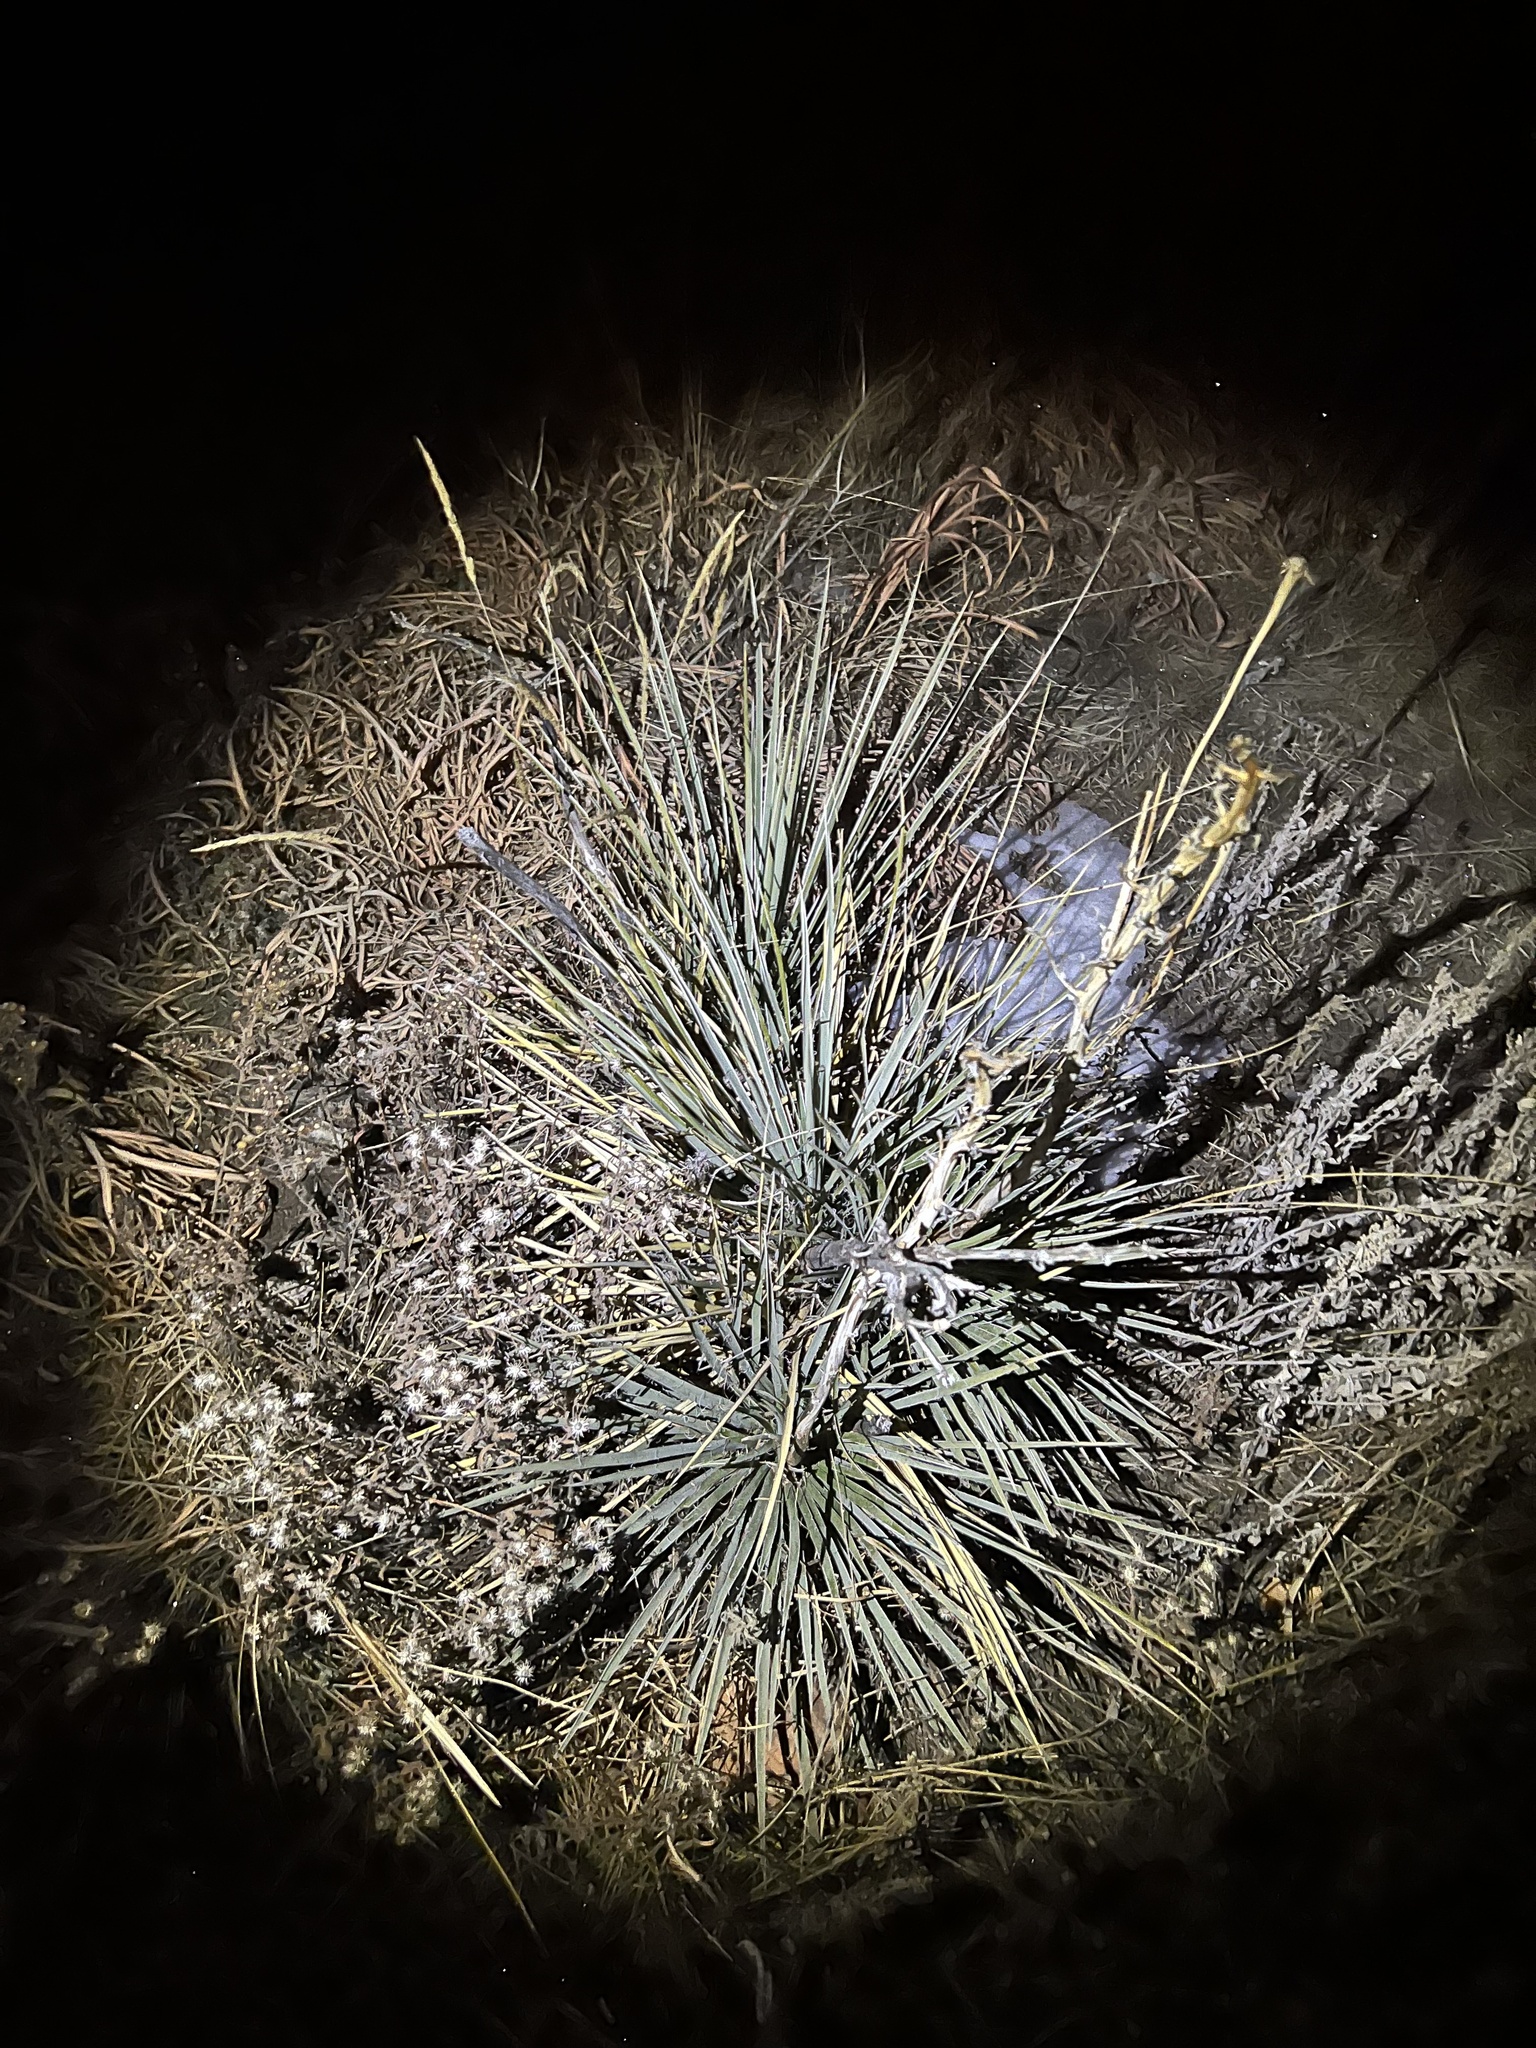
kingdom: Plantae
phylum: Tracheophyta
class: Liliopsida
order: Asparagales
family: Asparagaceae
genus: Yucca
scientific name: Yucca glauca
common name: Great plains yucca
